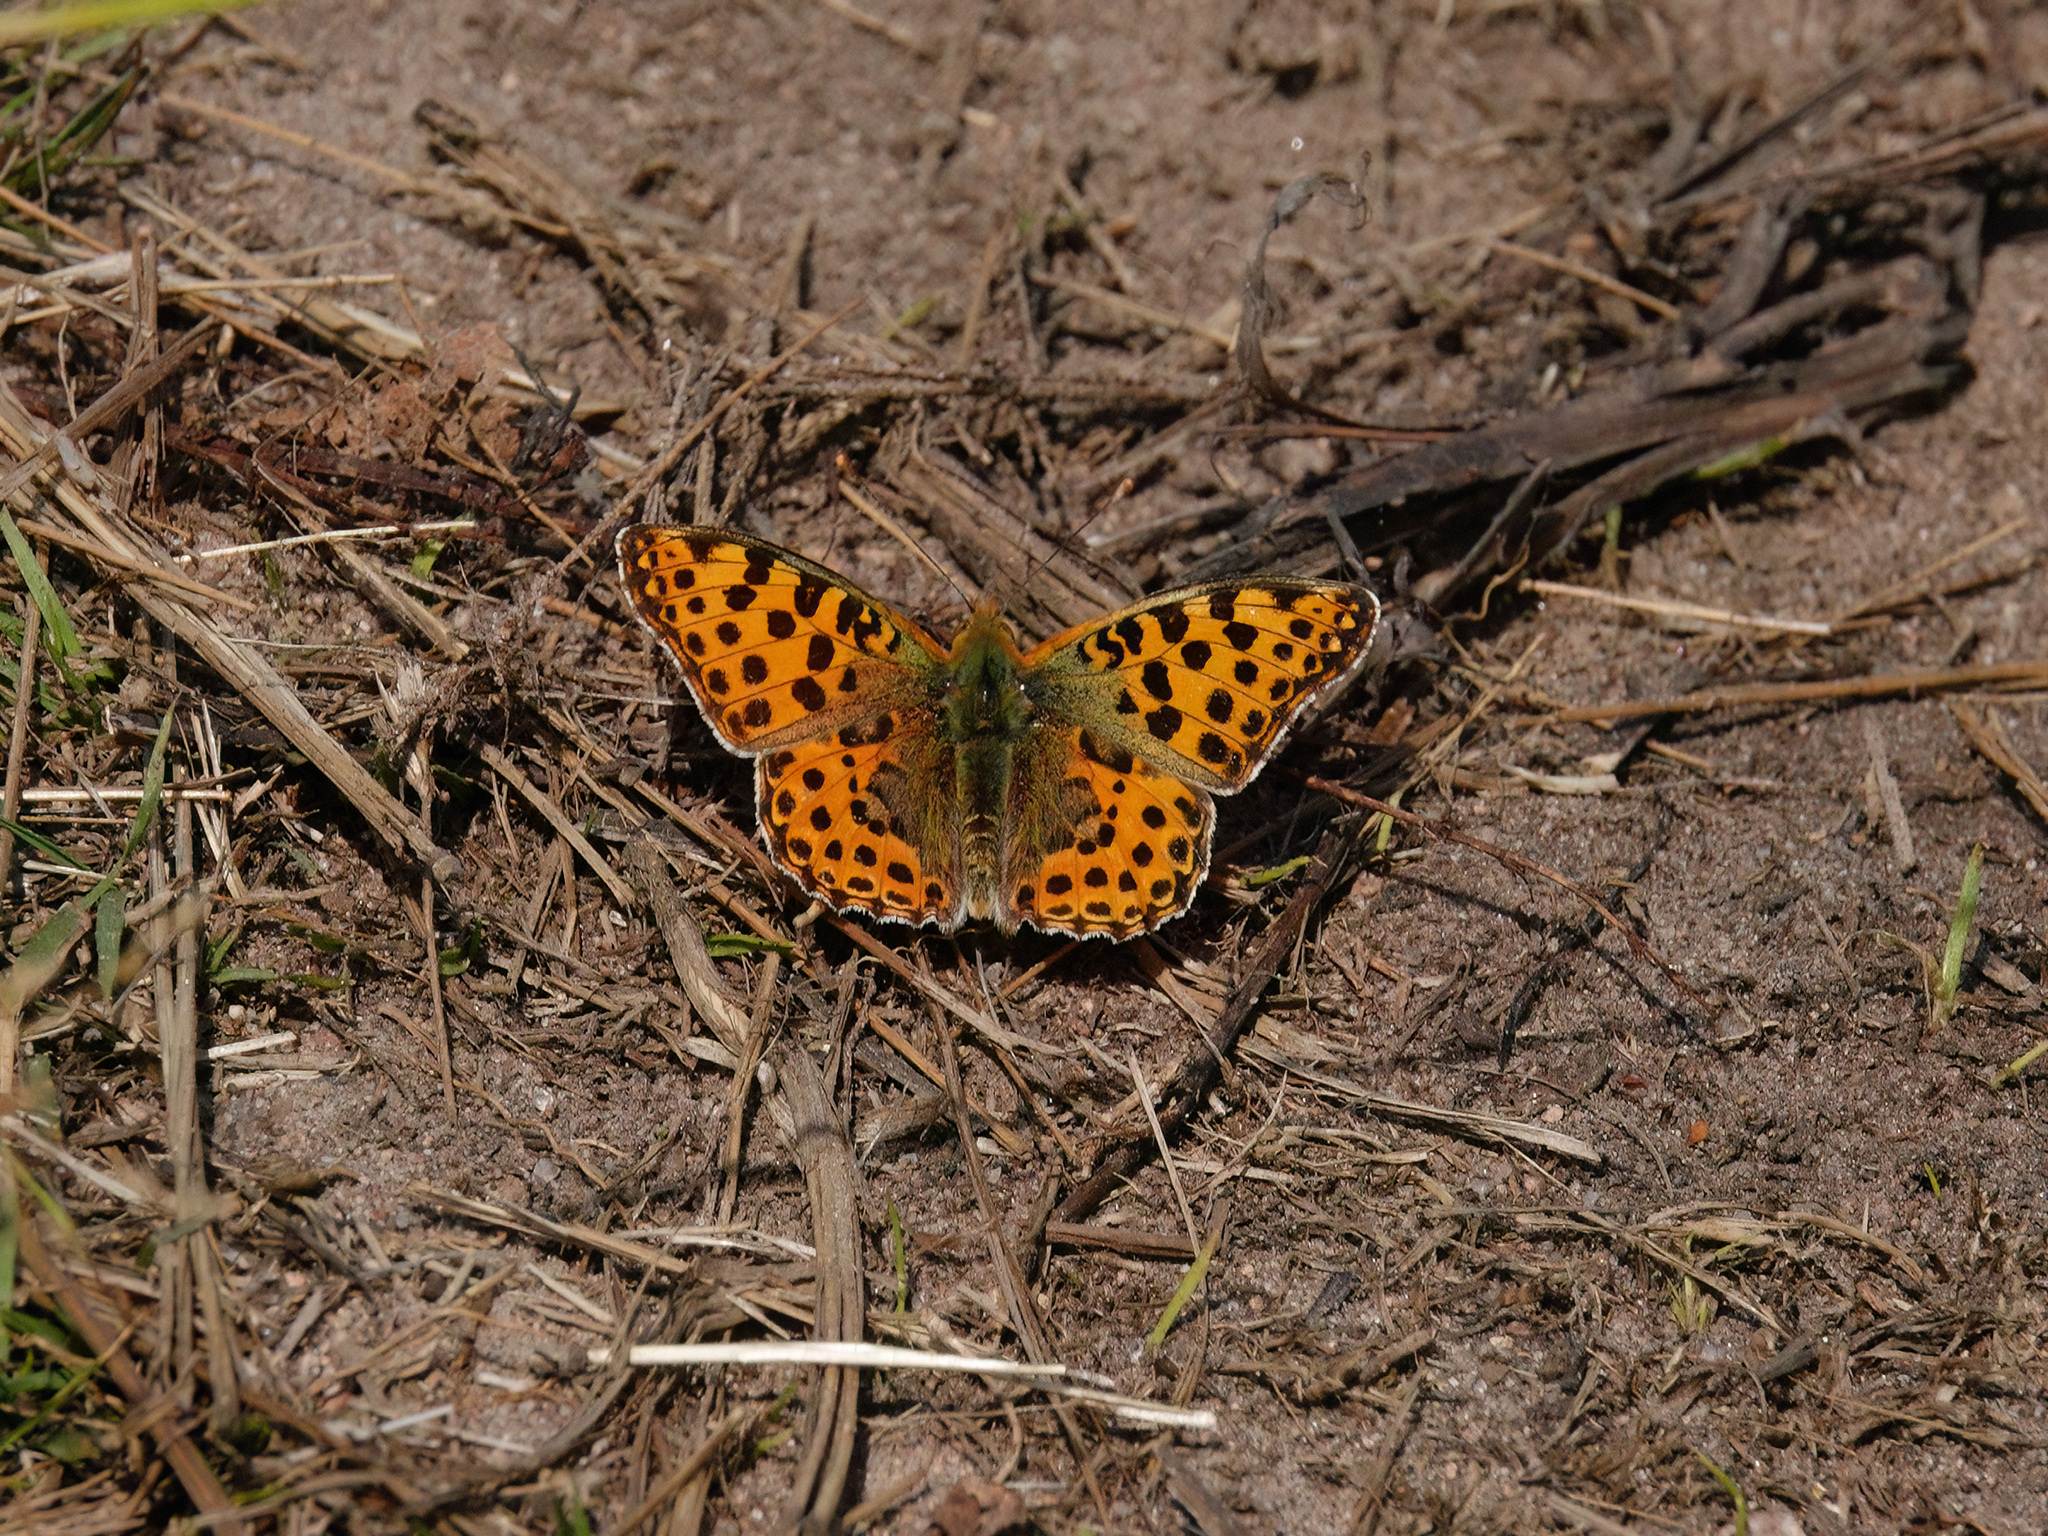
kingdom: Animalia
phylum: Arthropoda
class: Insecta
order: Lepidoptera
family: Nymphalidae
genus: Issoria
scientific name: Issoria lathonia
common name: Queen of spain fritillary
